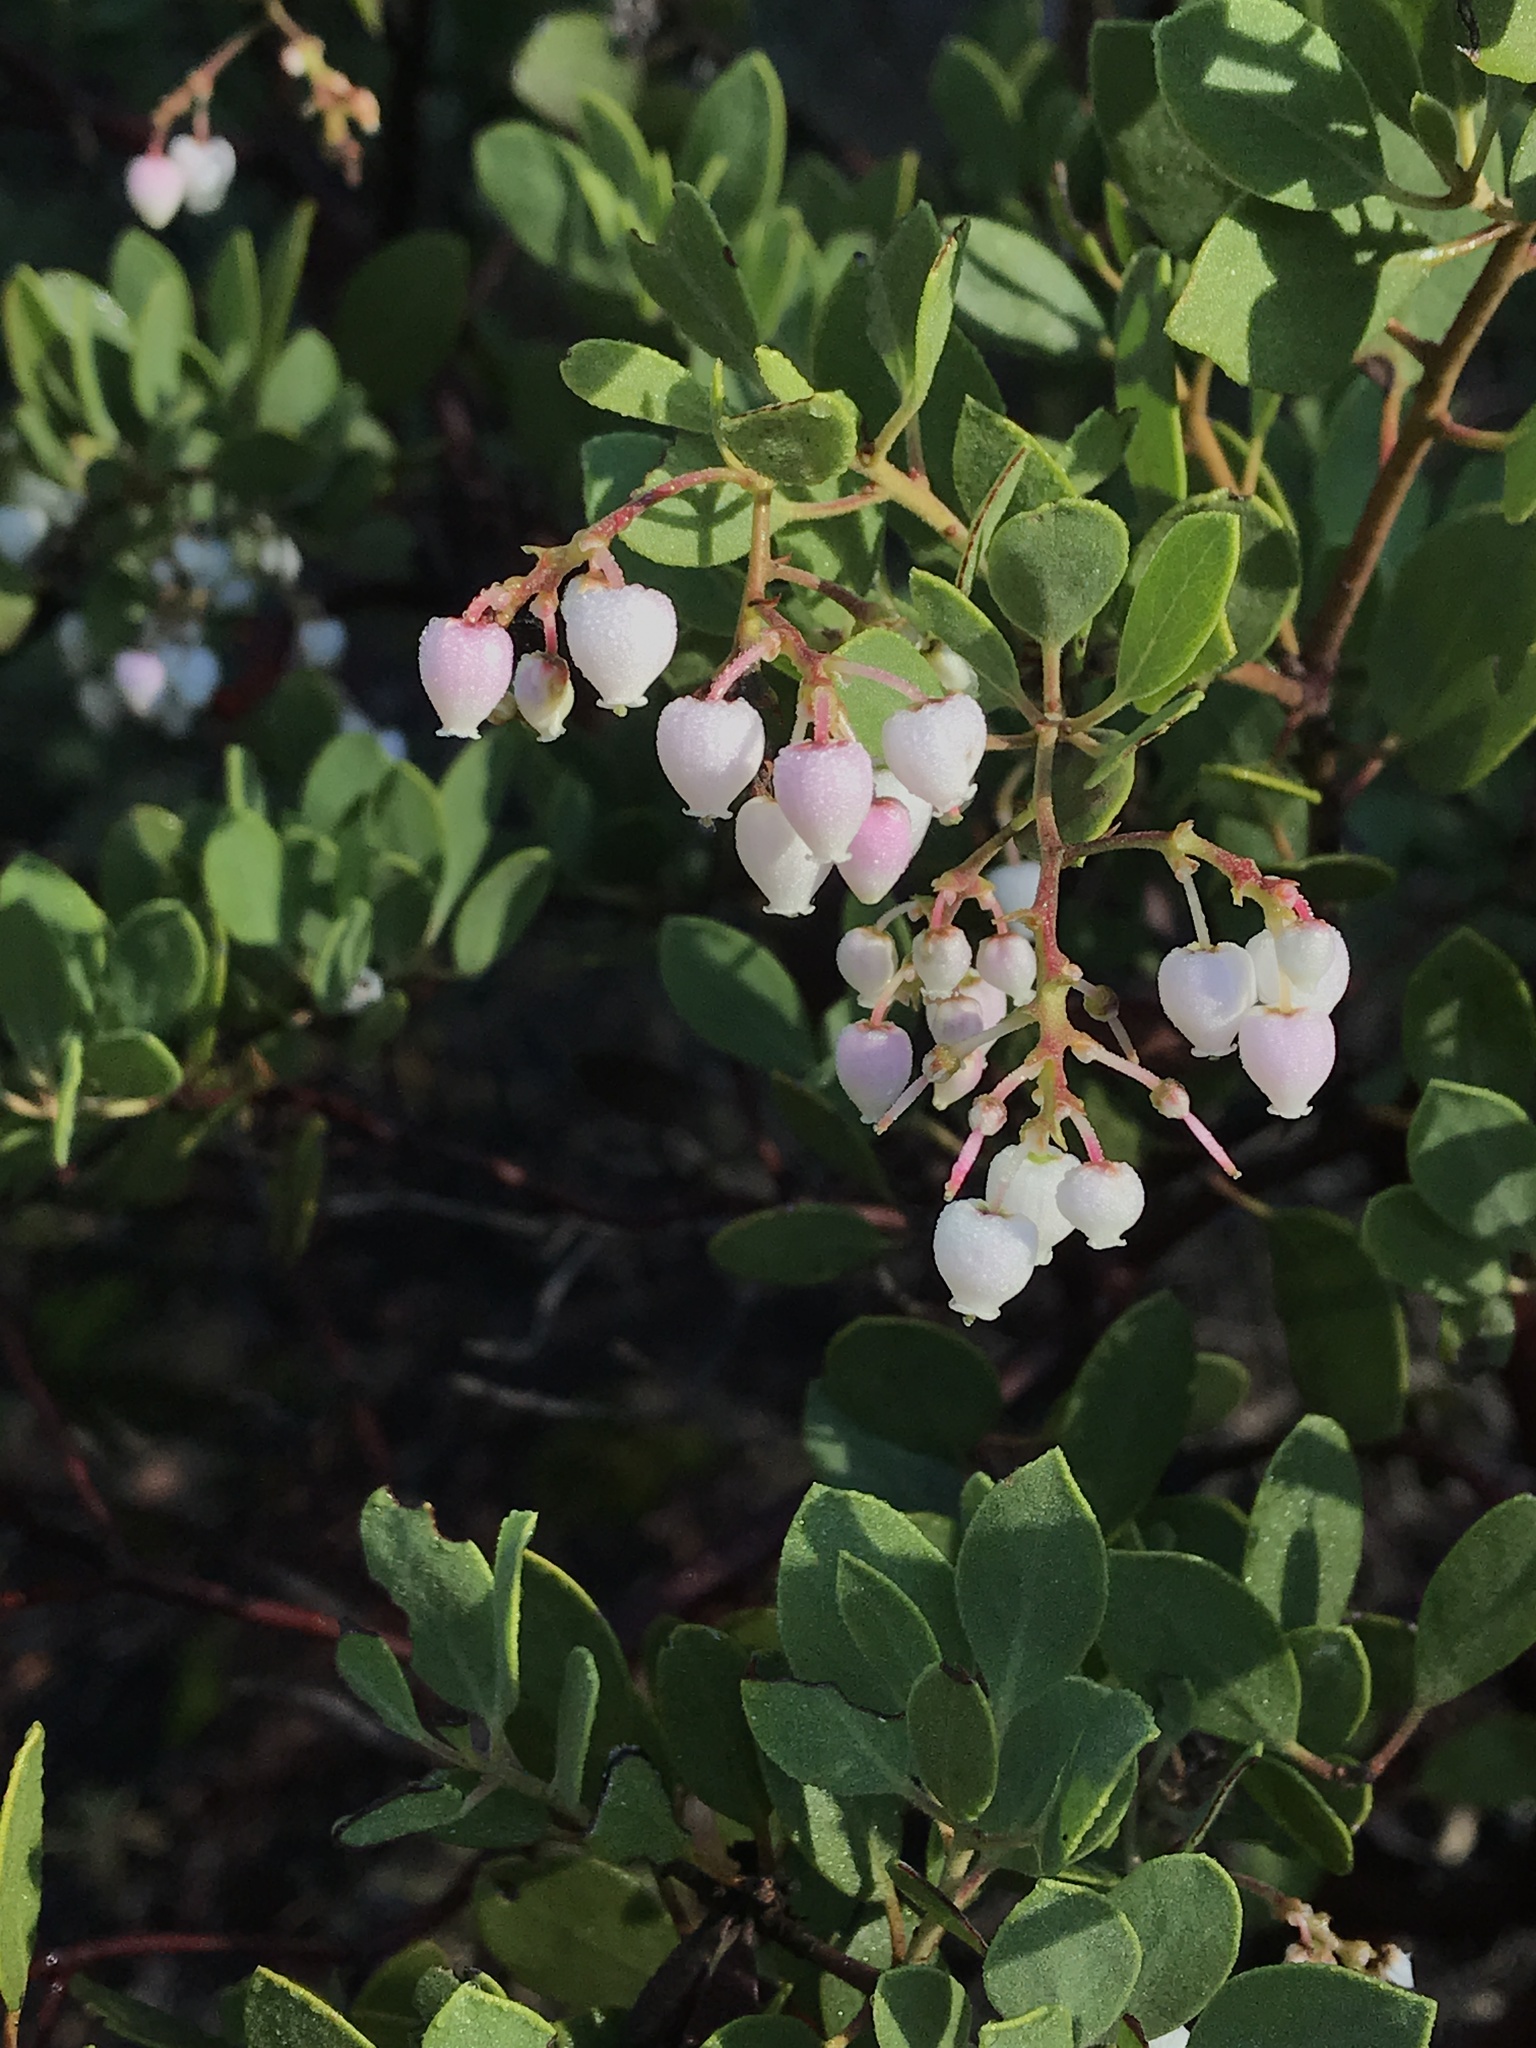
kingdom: Plantae
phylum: Tracheophyta
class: Magnoliopsida
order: Ericales
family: Ericaceae
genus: Arctostaphylos
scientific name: Arctostaphylos bakeri
